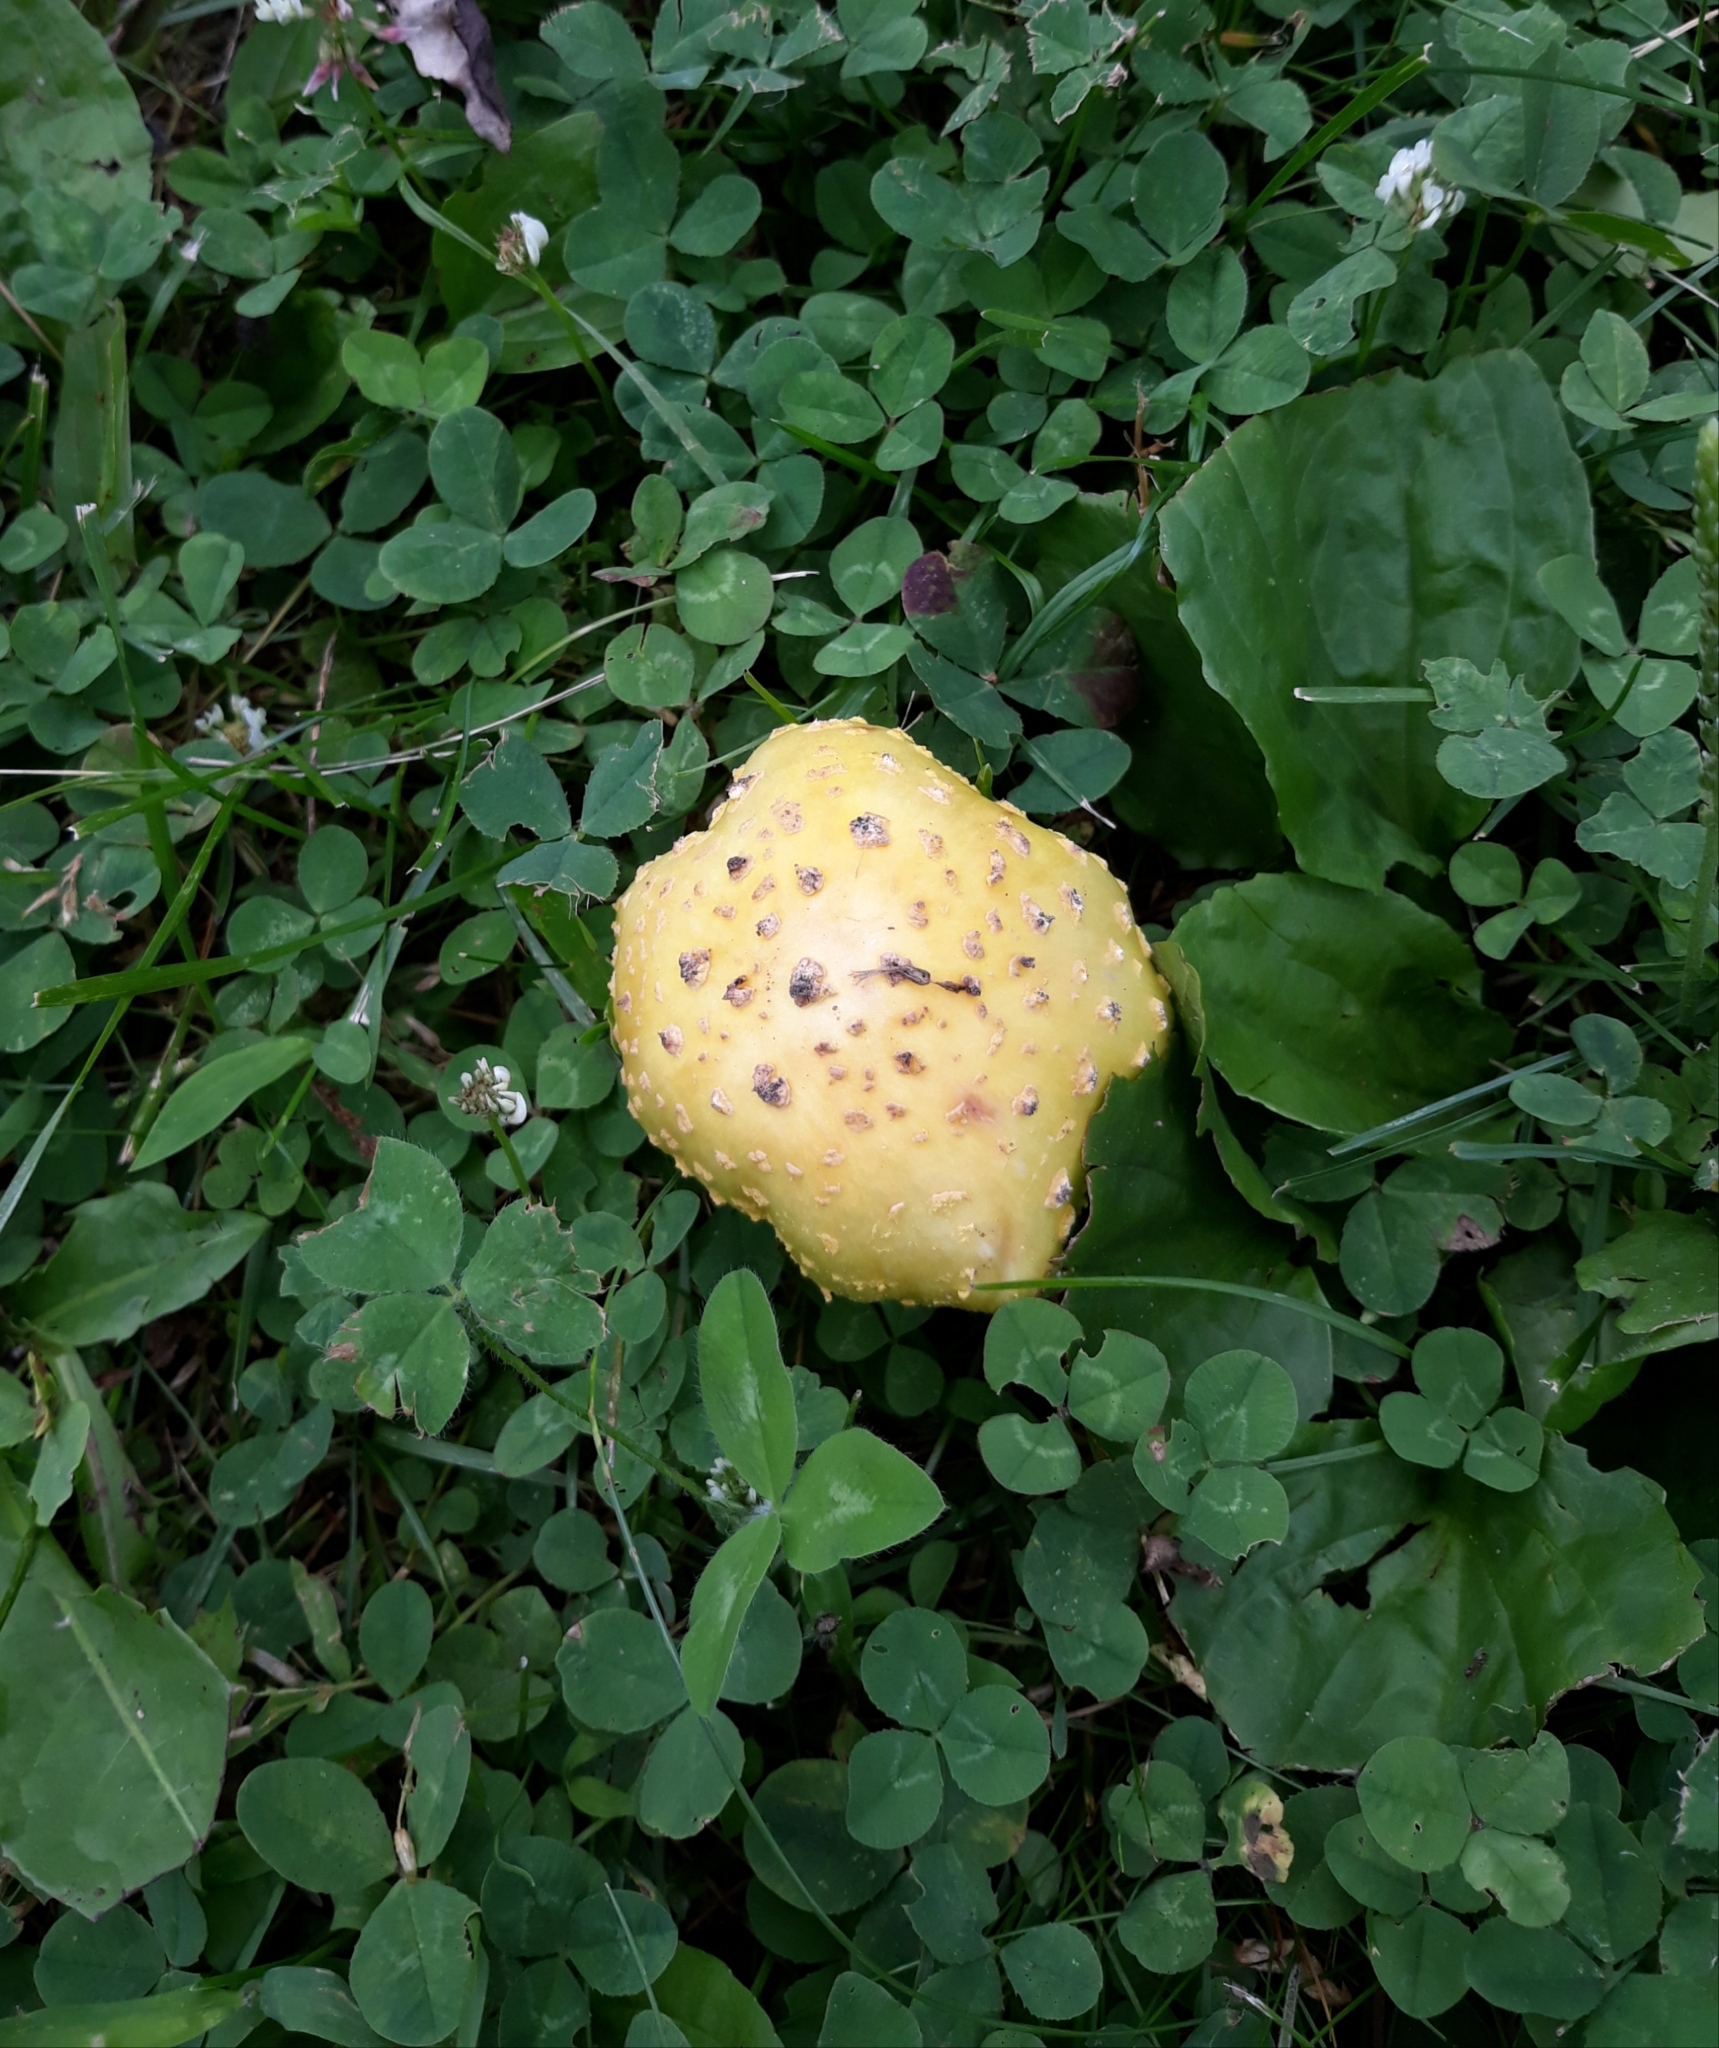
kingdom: Fungi
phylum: Basidiomycota
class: Agaricomycetes
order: Agaricales
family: Amanitaceae
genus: Amanita
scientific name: Amanita flavorubens
